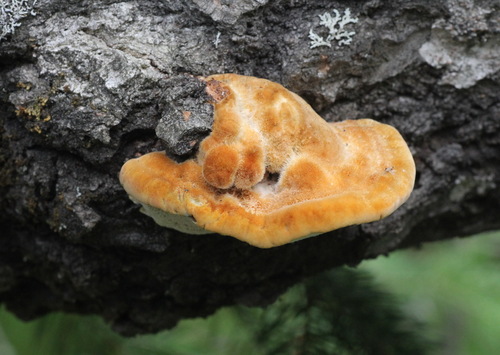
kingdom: Fungi
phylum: Basidiomycota
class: Agaricomycetes
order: Hymenochaetales
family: Hymenochaetaceae
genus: Inocutis
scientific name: Inocutis rheades
